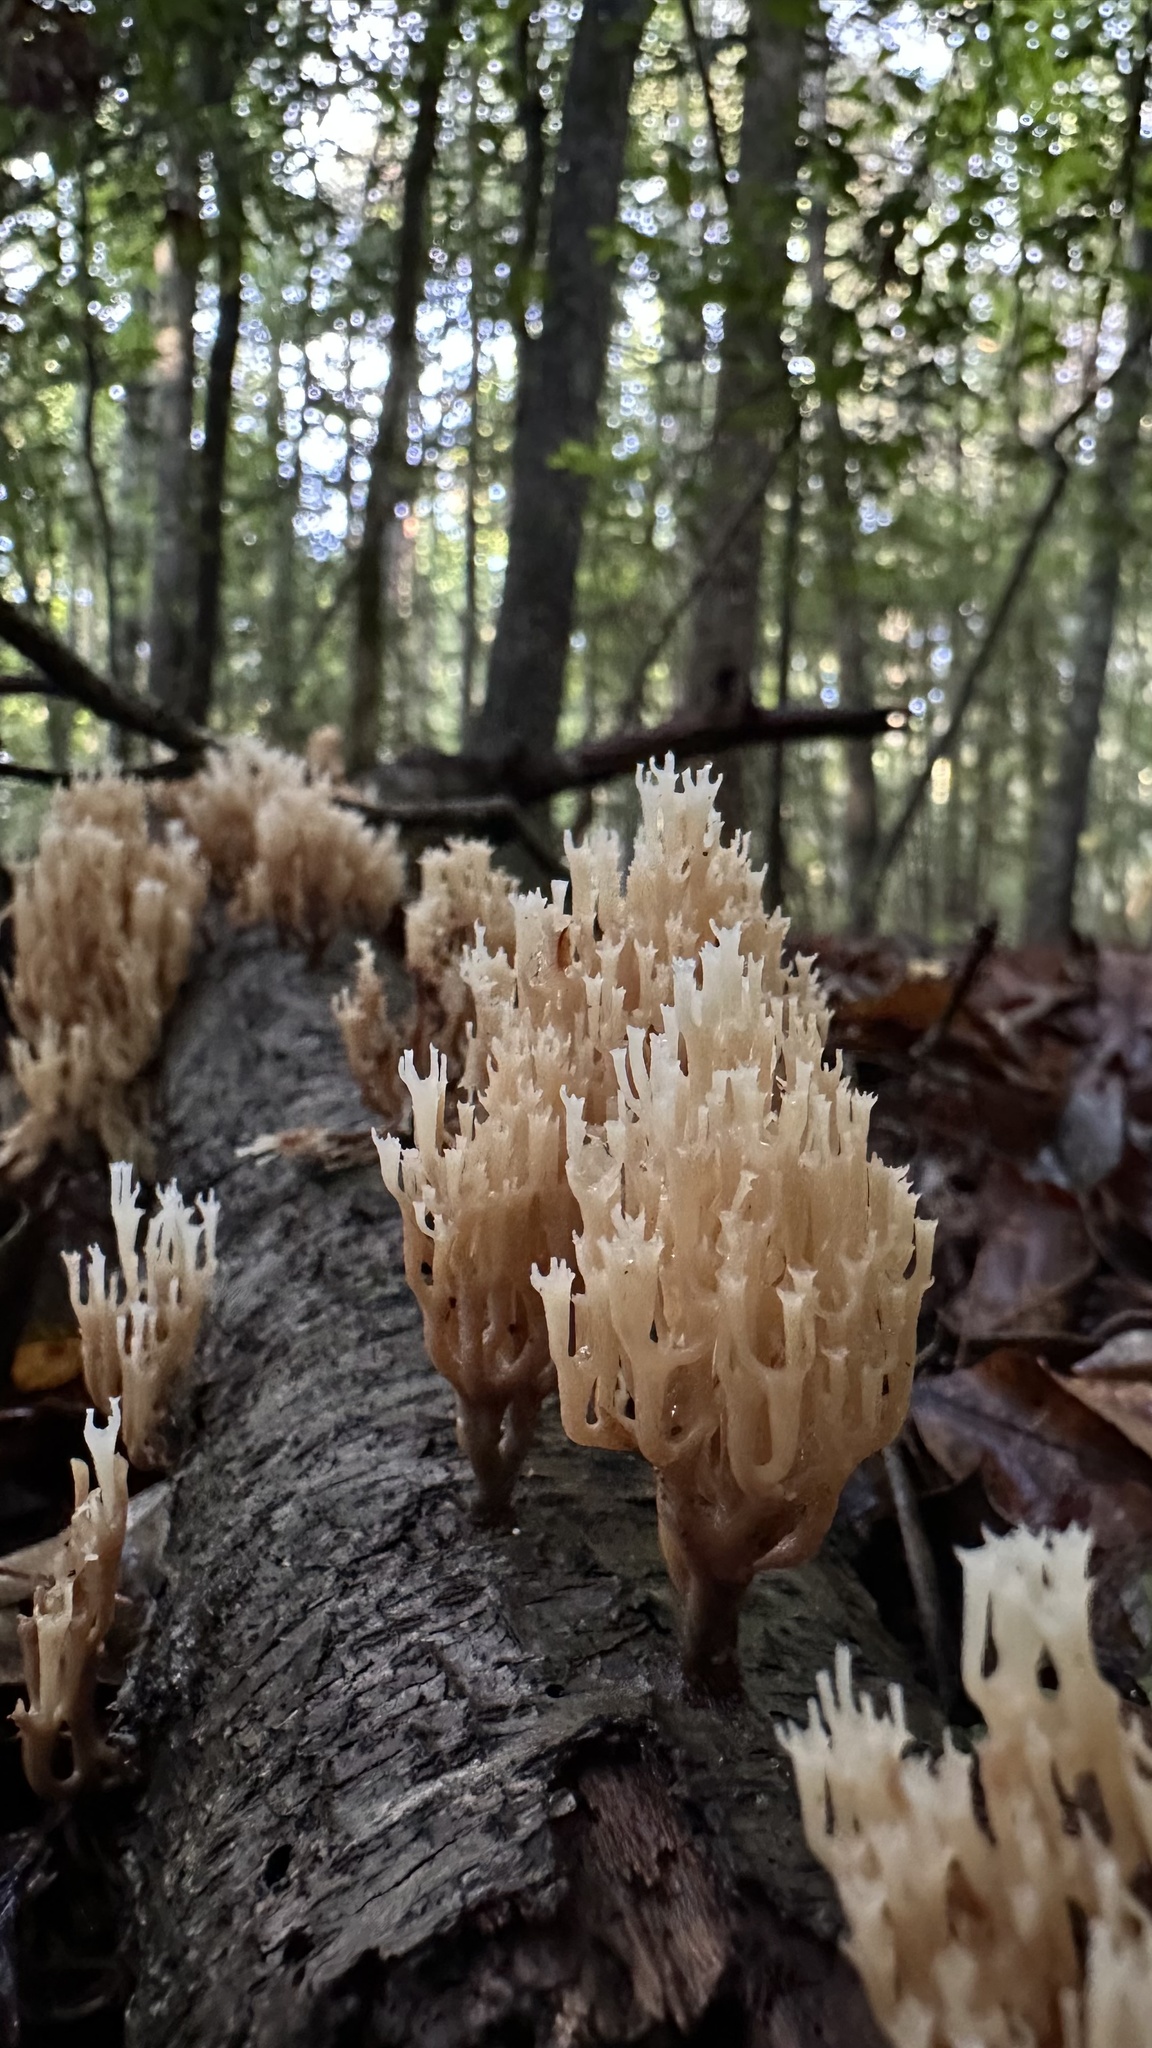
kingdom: Fungi
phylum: Basidiomycota
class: Agaricomycetes
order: Russulales
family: Auriscalpiaceae
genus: Artomyces
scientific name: Artomyces pyxidatus
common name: Crown-tipped coral fungus
